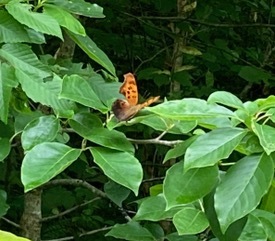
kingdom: Animalia
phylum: Arthropoda
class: Insecta
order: Lepidoptera
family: Nymphalidae
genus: Polygonia
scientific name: Polygonia interrogationis
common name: Question mark
